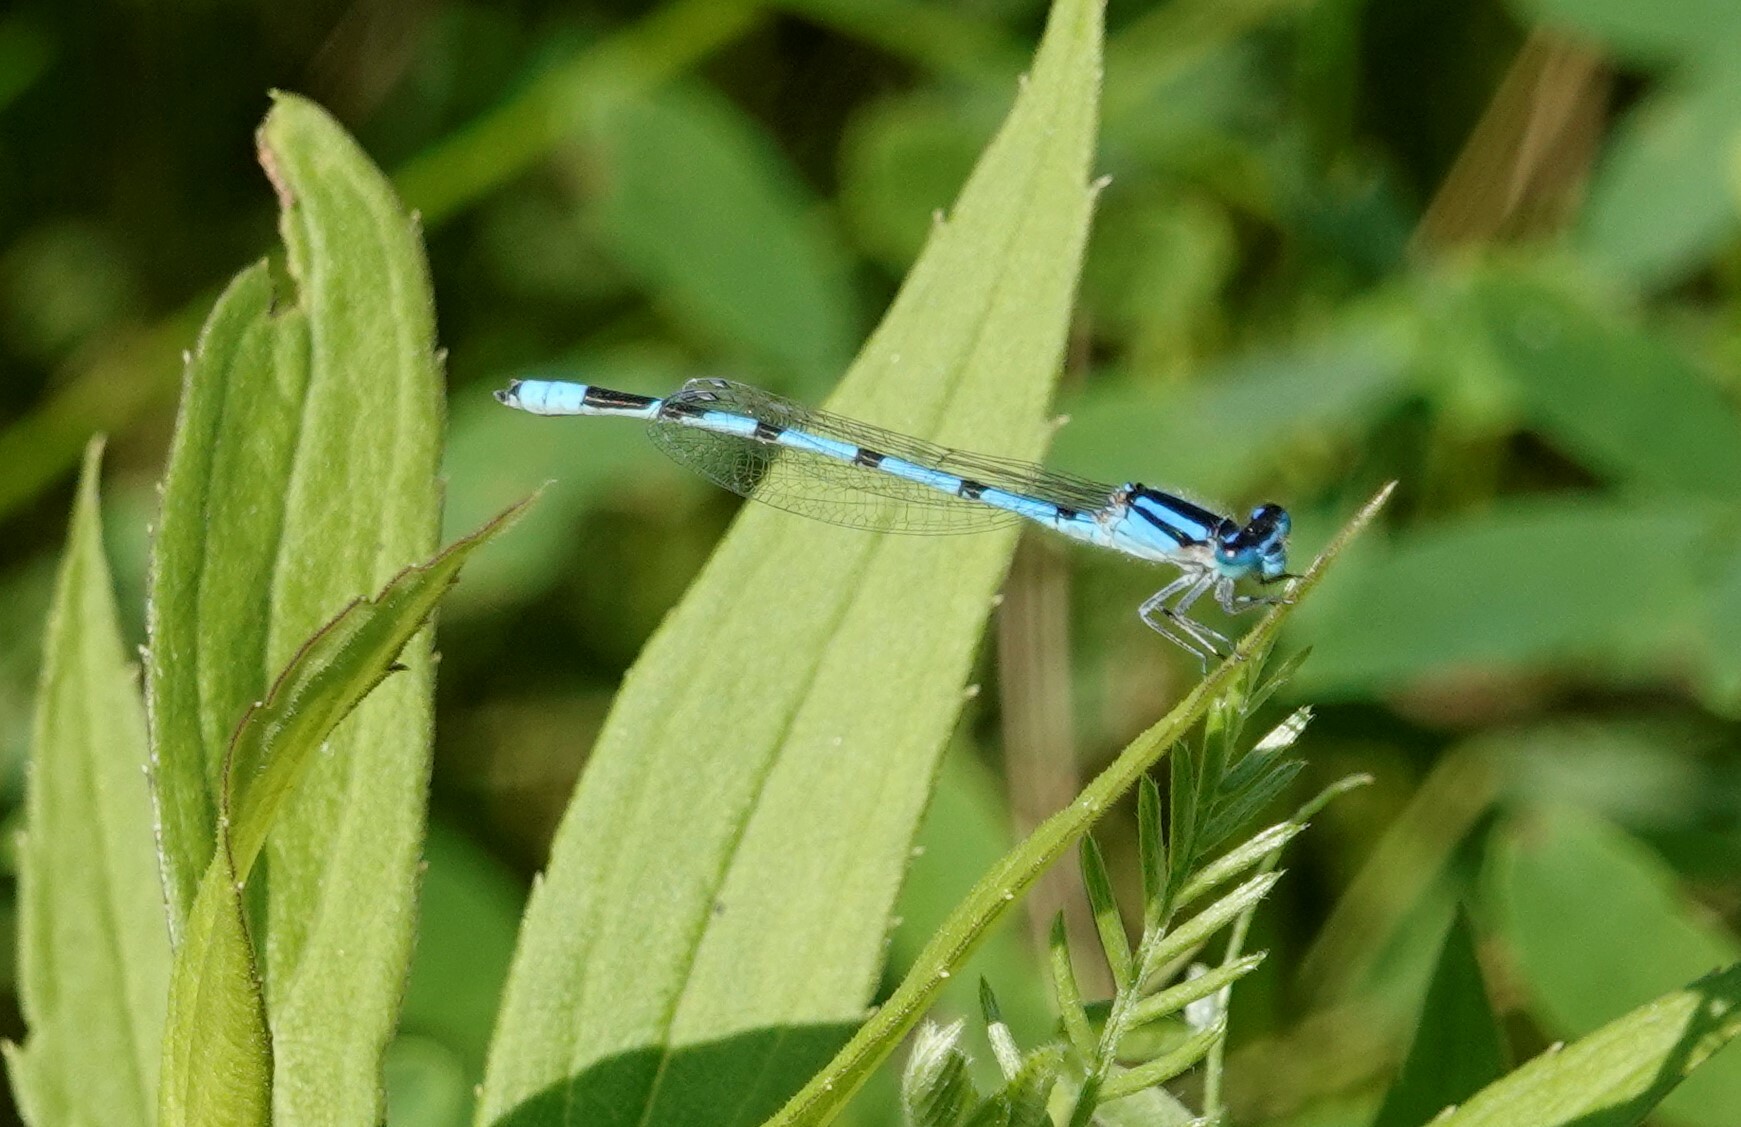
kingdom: Animalia
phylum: Arthropoda
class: Insecta
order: Odonata
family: Coenagrionidae
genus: Enallagma
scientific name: Enallagma civile
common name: Damselfly
